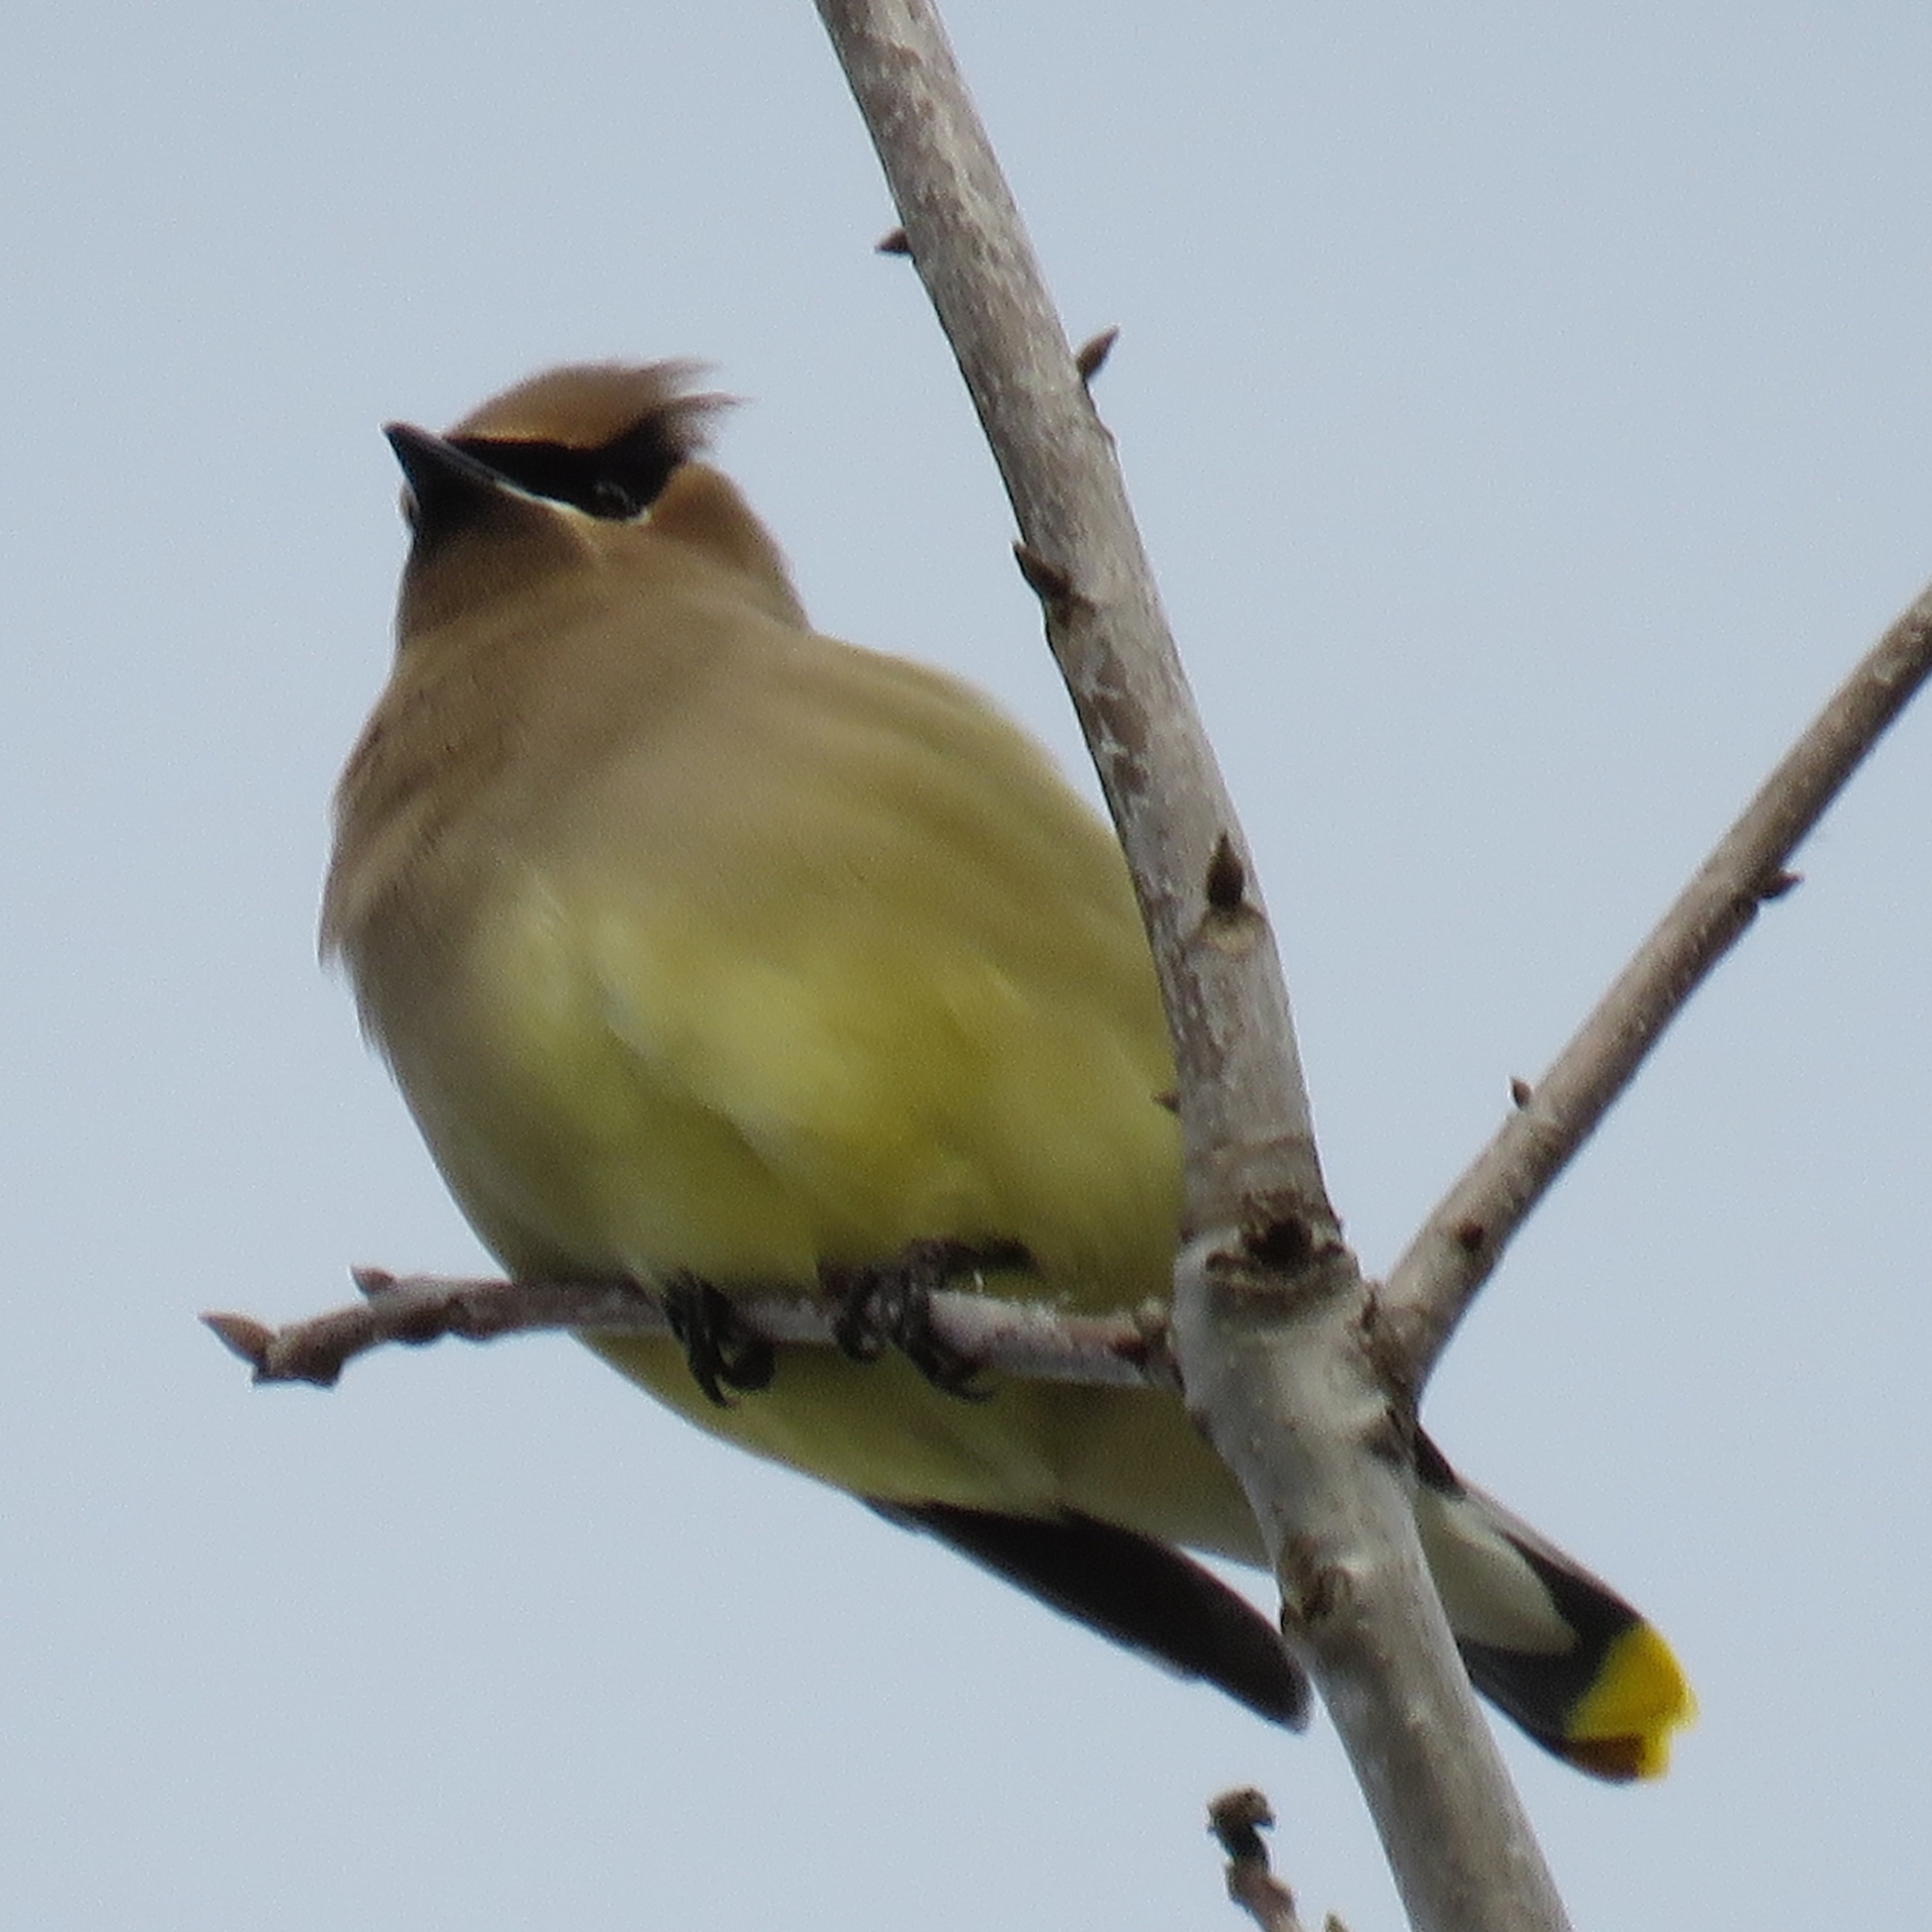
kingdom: Animalia
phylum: Chordata
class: Aves
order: Passeriformes
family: Bombycillidae
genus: Bombycilla
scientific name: Bombycilla cedrorum
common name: Cedar waxwing
